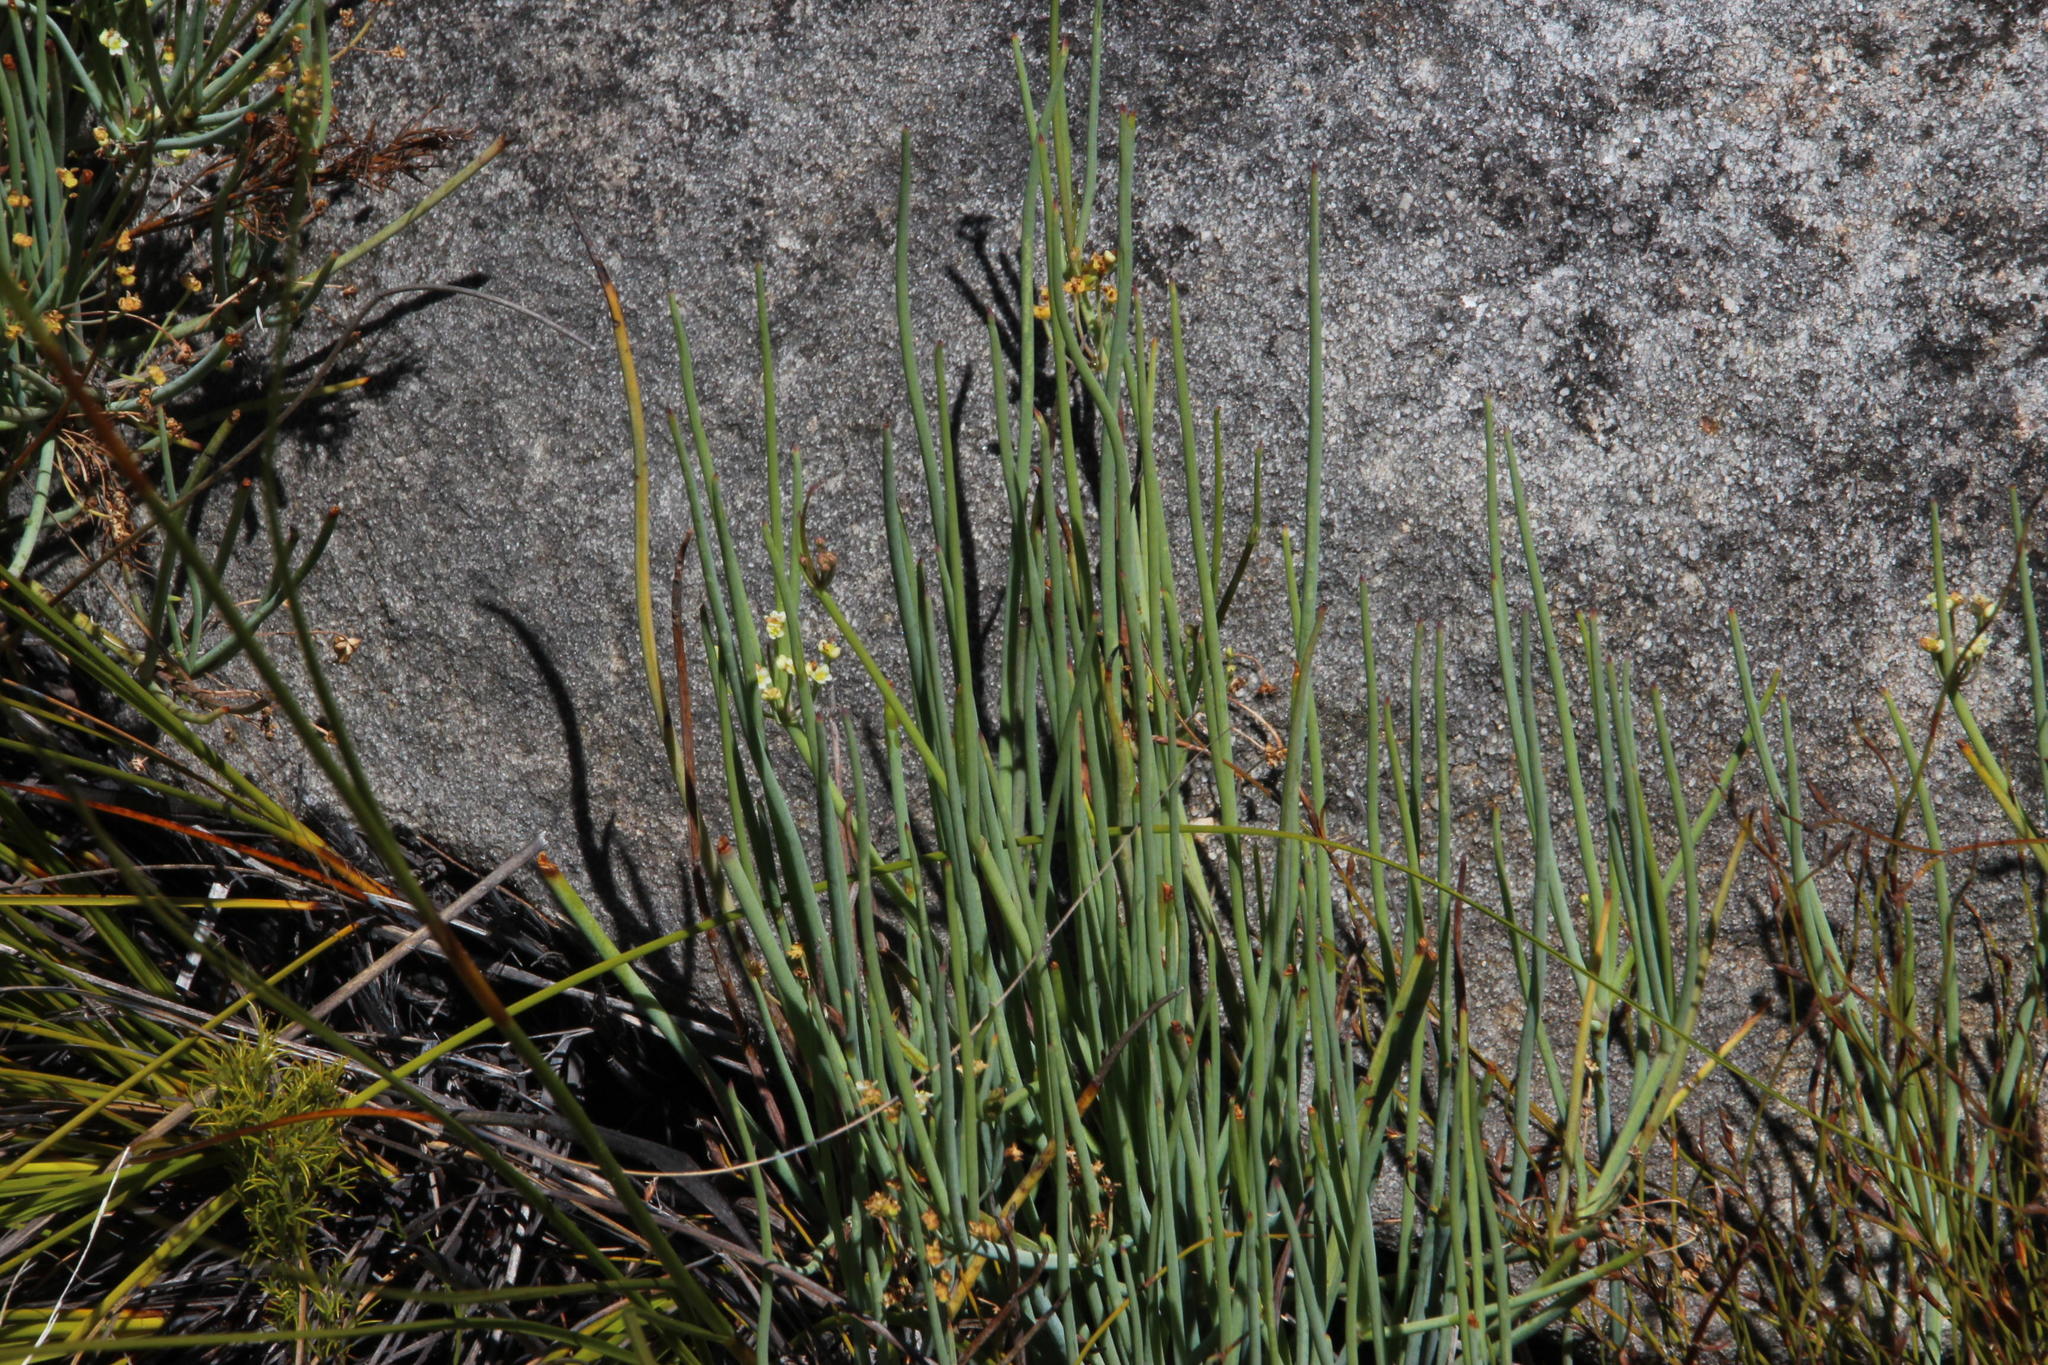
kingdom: Plantae
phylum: Tracheophyta
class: Magnoliopsida
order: Apiales
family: Apiaceae
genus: Centella
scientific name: Centella glauca
